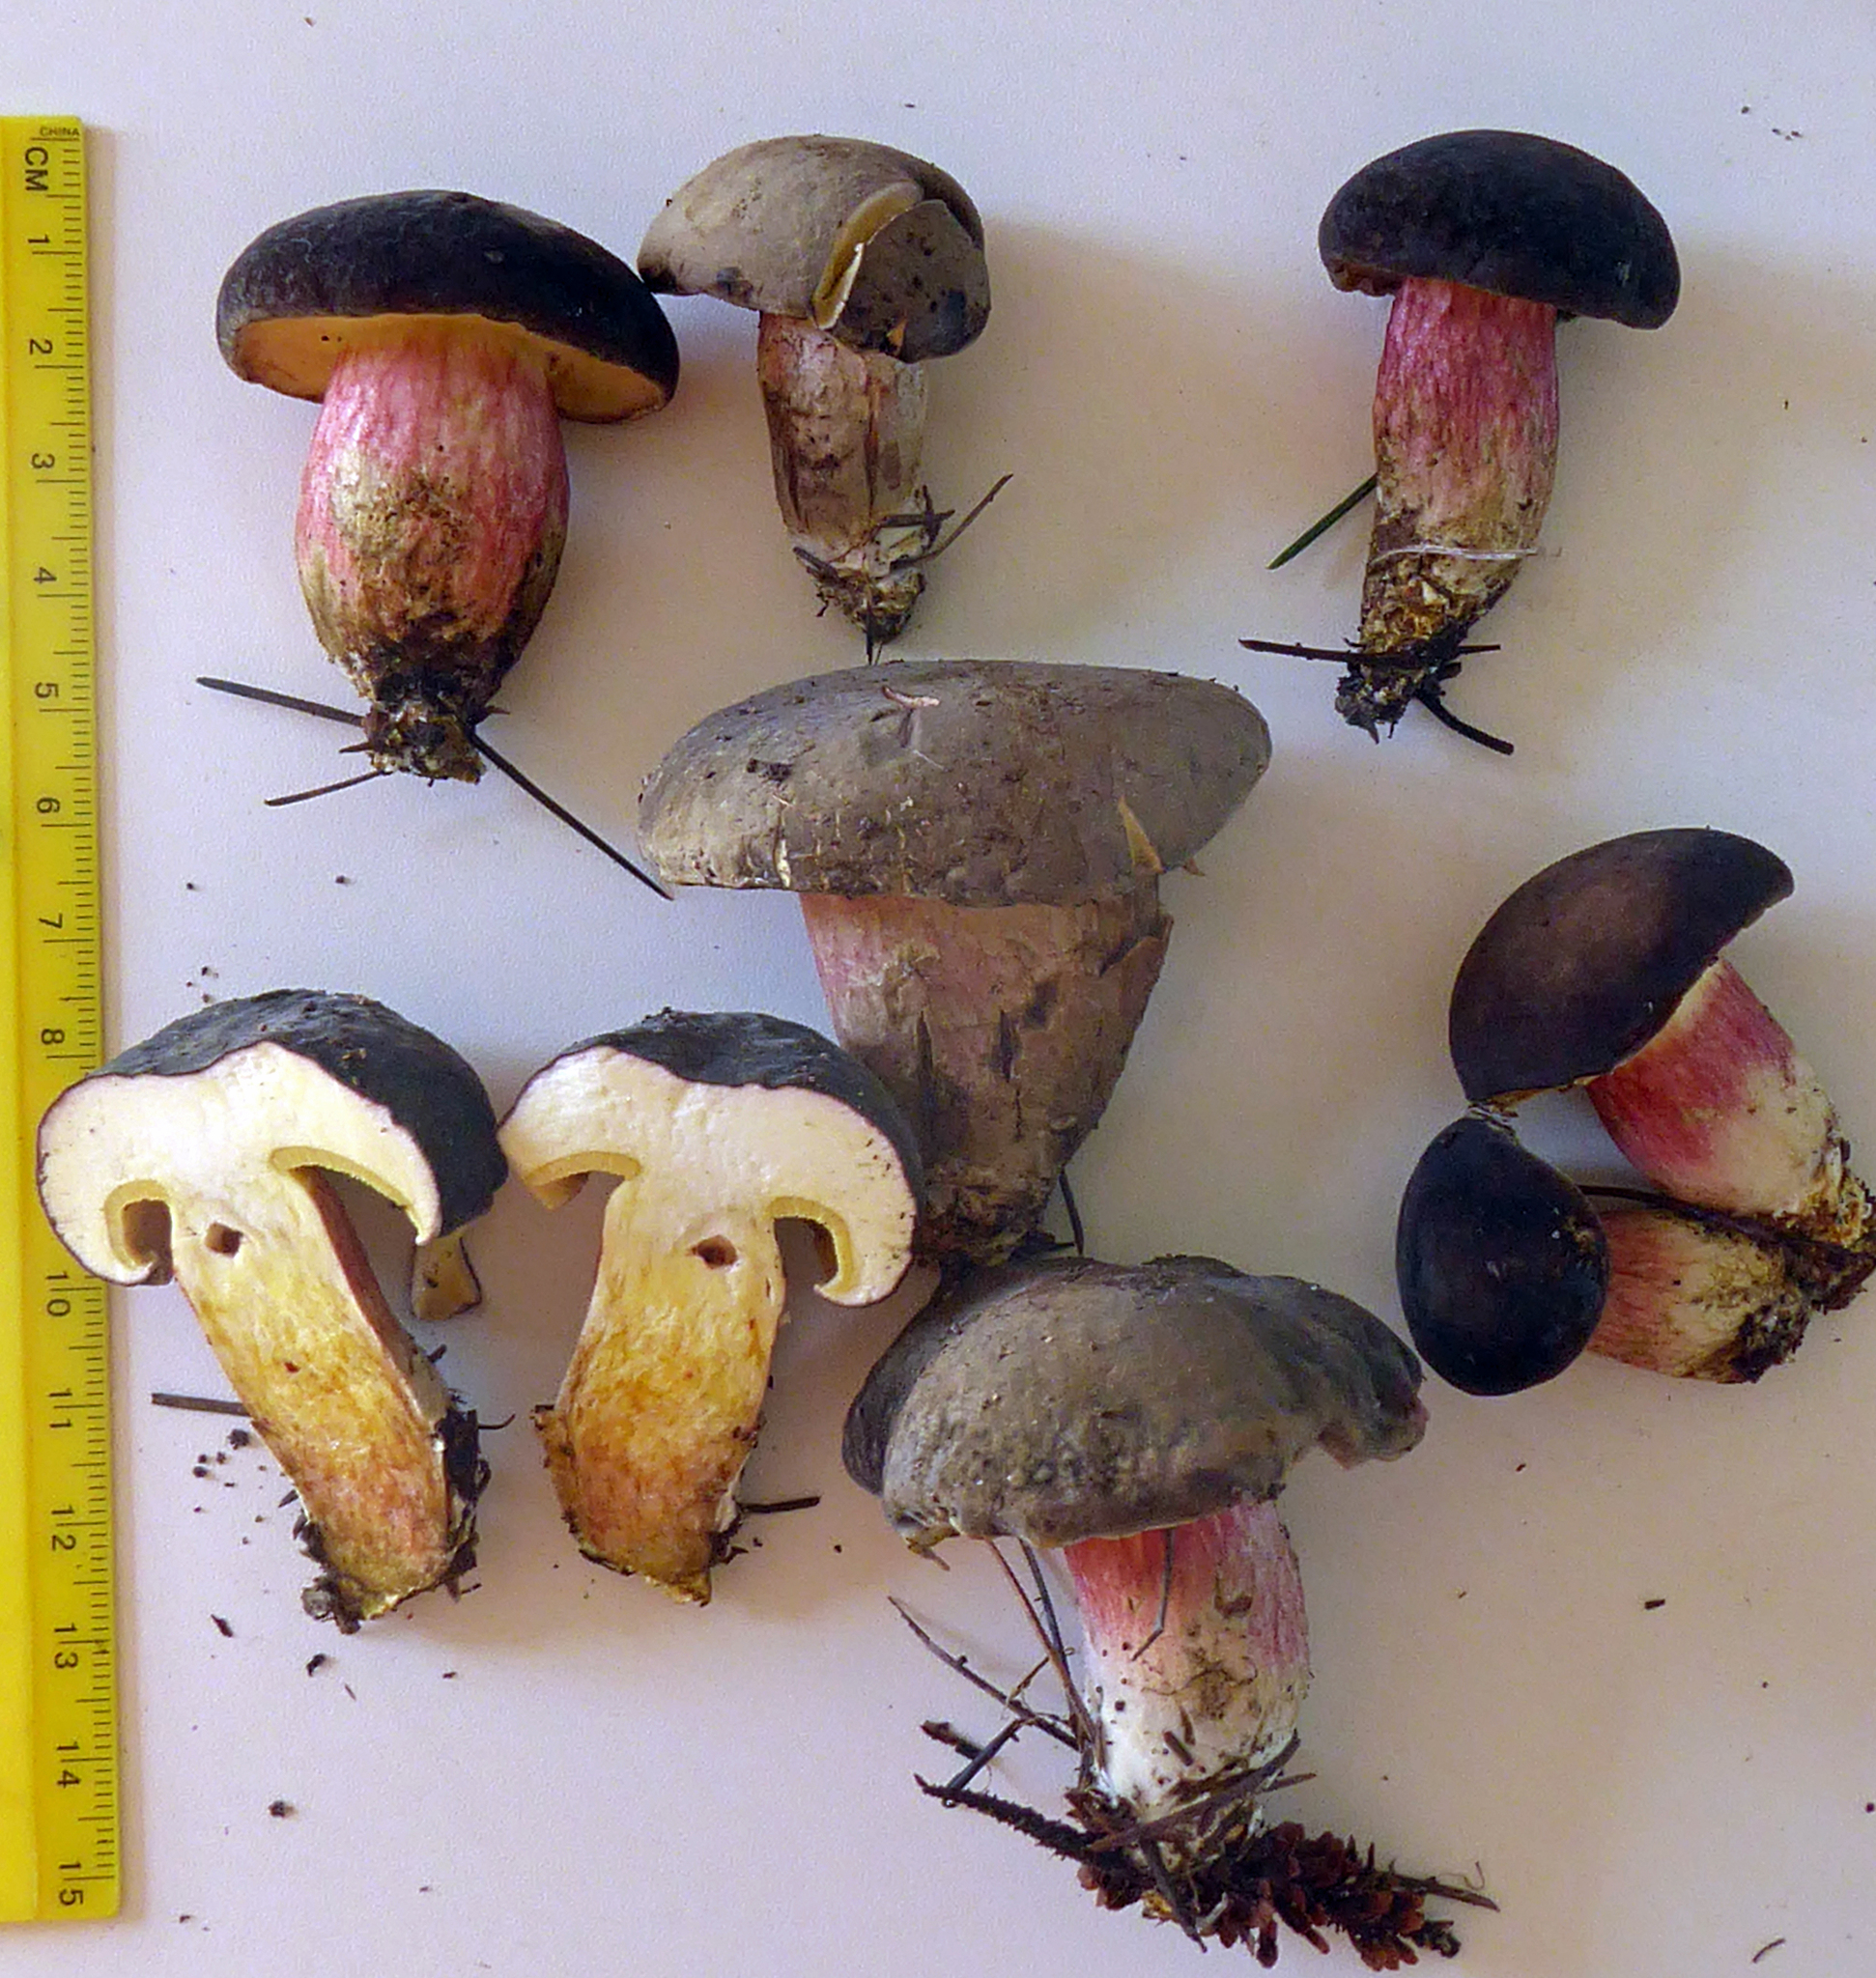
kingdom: Fungi
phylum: Basidiomycota
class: Agaricomycetes
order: Boletales
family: Boletaceae
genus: Xerocomellus
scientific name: Xerocomellus cisalpinus
